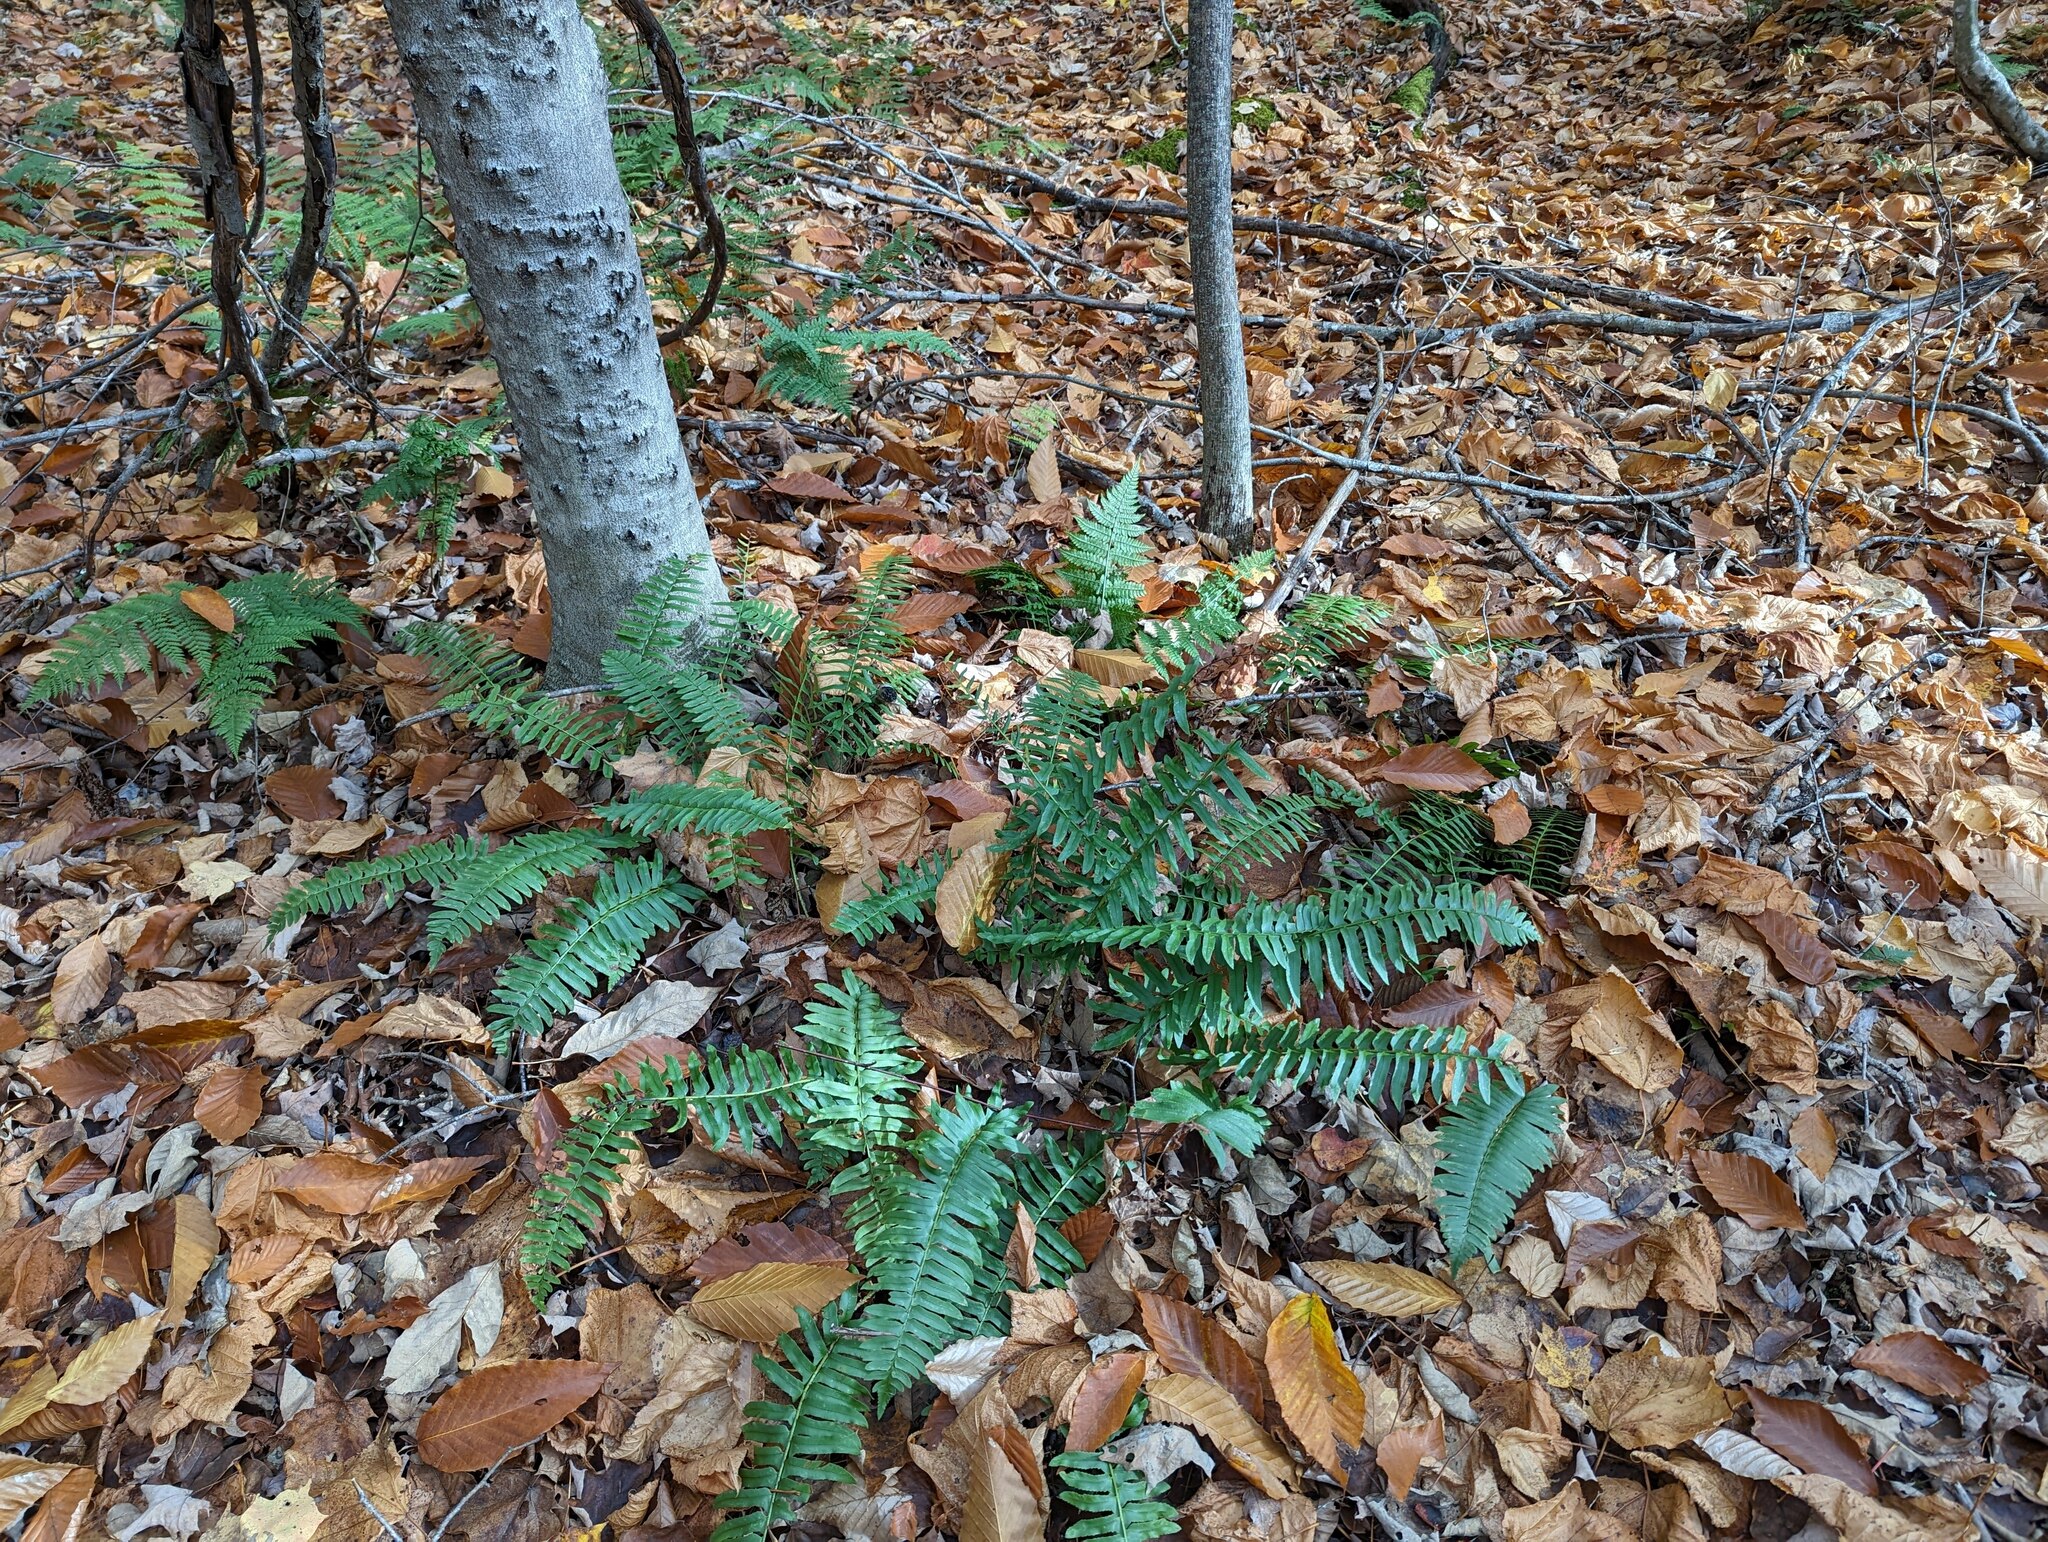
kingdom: Plantae
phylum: Tracheophyta
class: Polypodiopsida
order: Polypodiales
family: Dryopteridaceae
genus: Polystichum
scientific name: Polystichum acrostichoides
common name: Christmas fern
